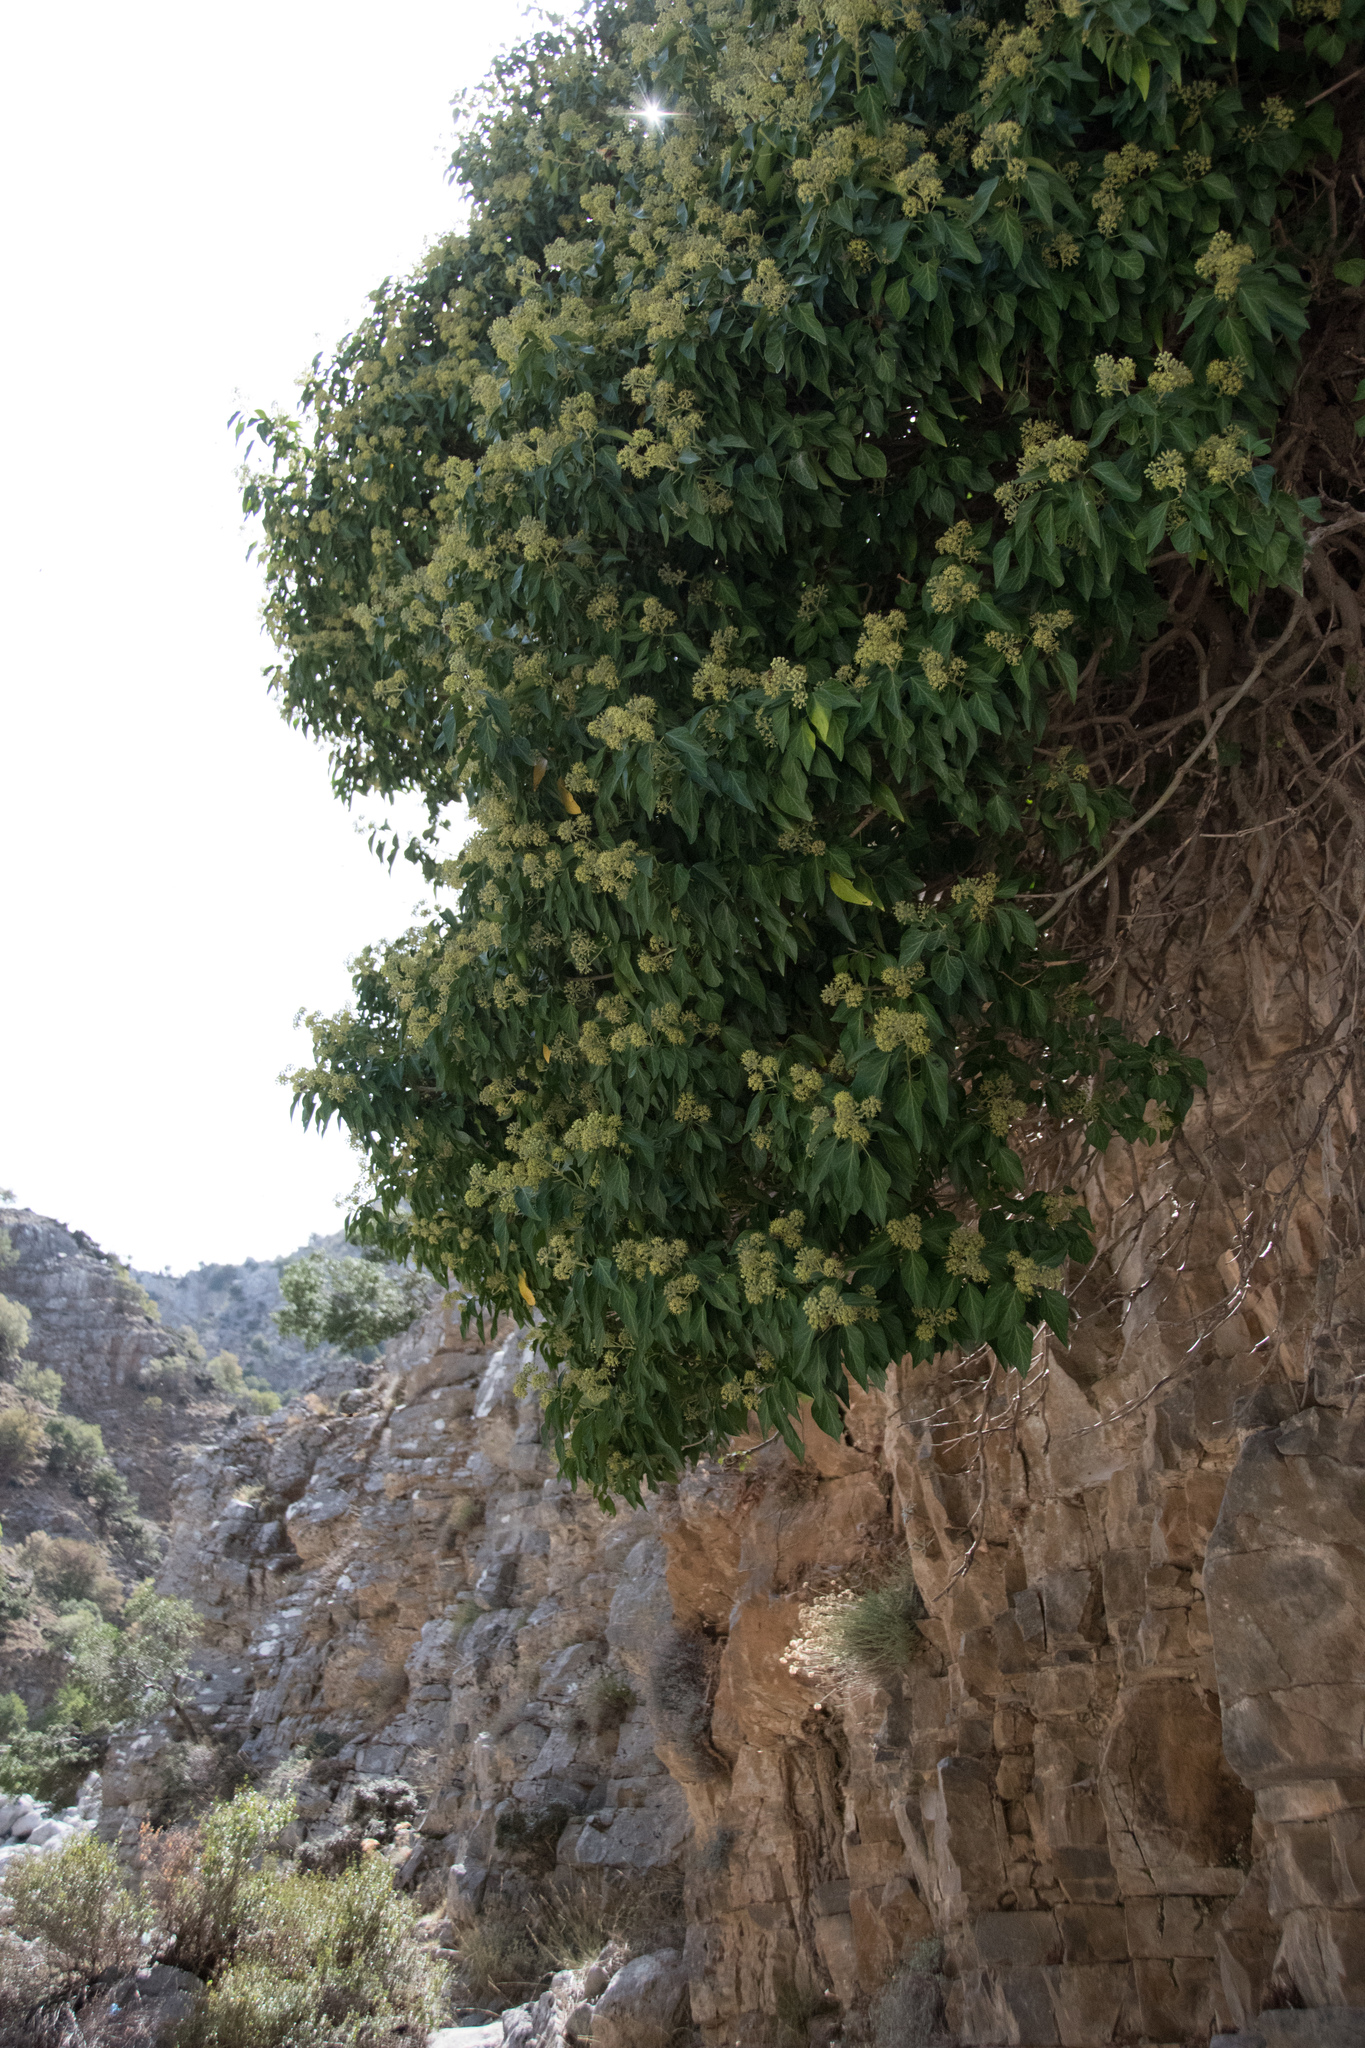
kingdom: Plantae
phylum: Tracheophyta
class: Magnoliopsida
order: Apiales
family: Araliaceae
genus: Hedera
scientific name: Hedera helix
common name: Ivy
